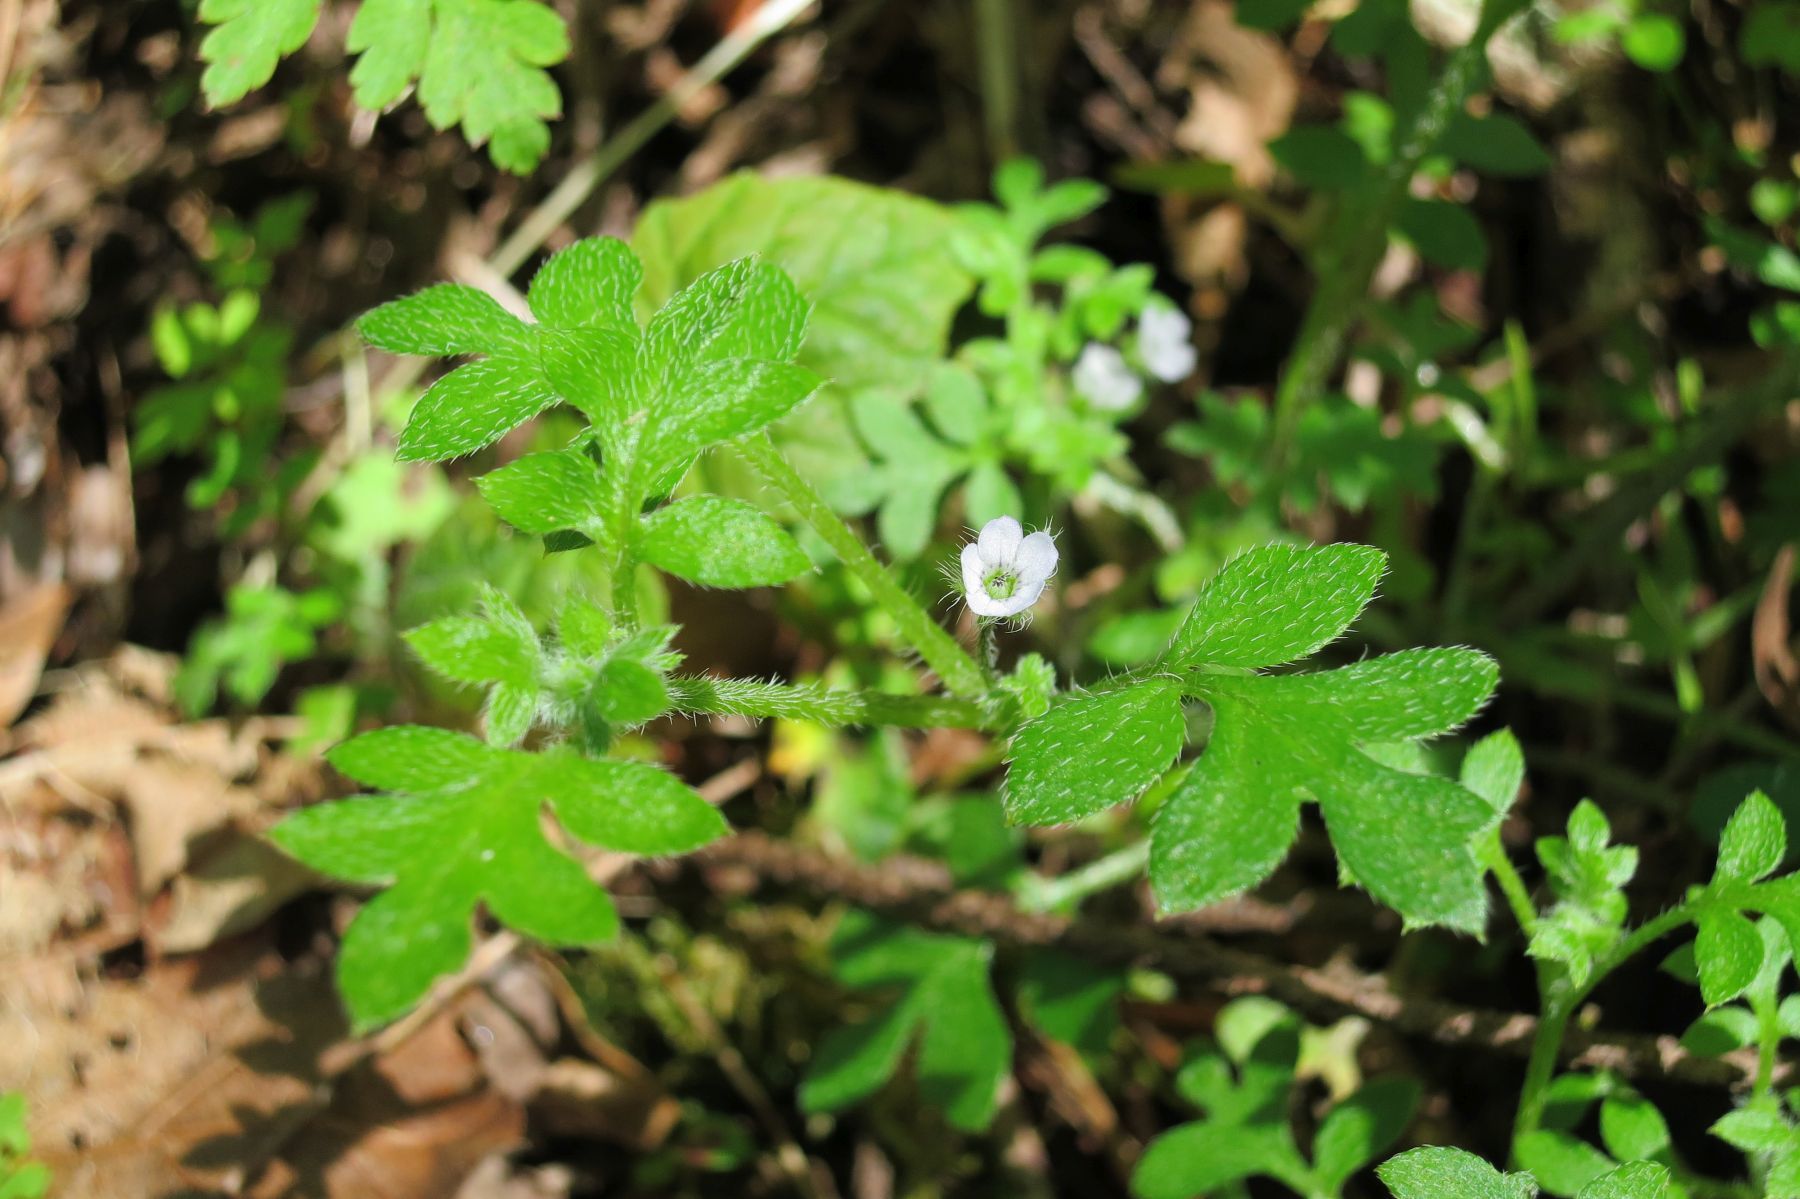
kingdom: Plantae
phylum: Tracheophyta
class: Magnoliopsida
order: Boraginales
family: Hydrophyllaceae
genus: Nemophila
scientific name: Nemophila parviflora
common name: Small-flowered baby-blue-eyes
